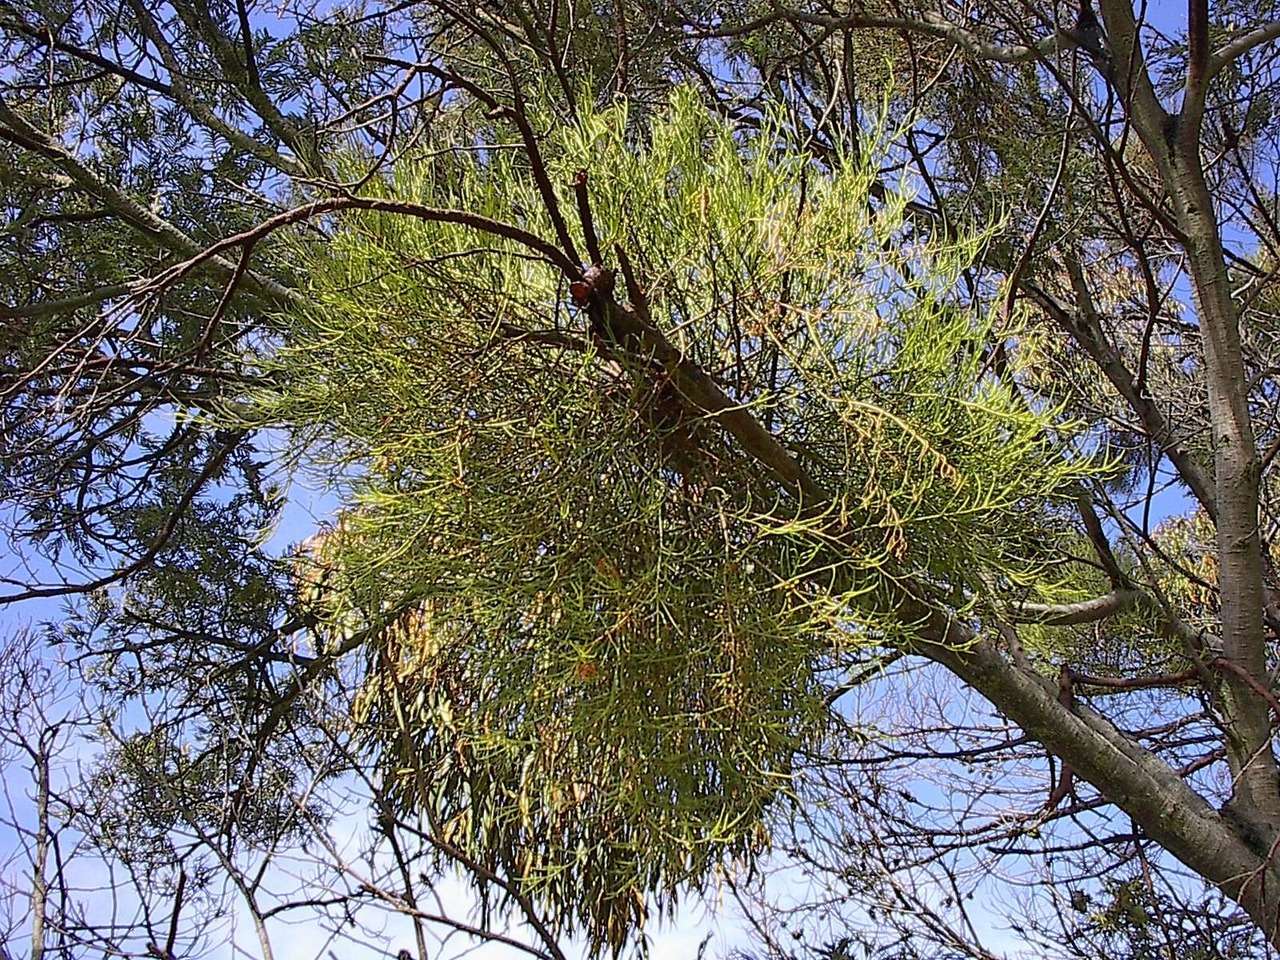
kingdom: Plantae
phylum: Tracheophyta
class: Magnoliopsida
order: Santalales
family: Loranthaceae
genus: Amyema
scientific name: Amyema preissii
